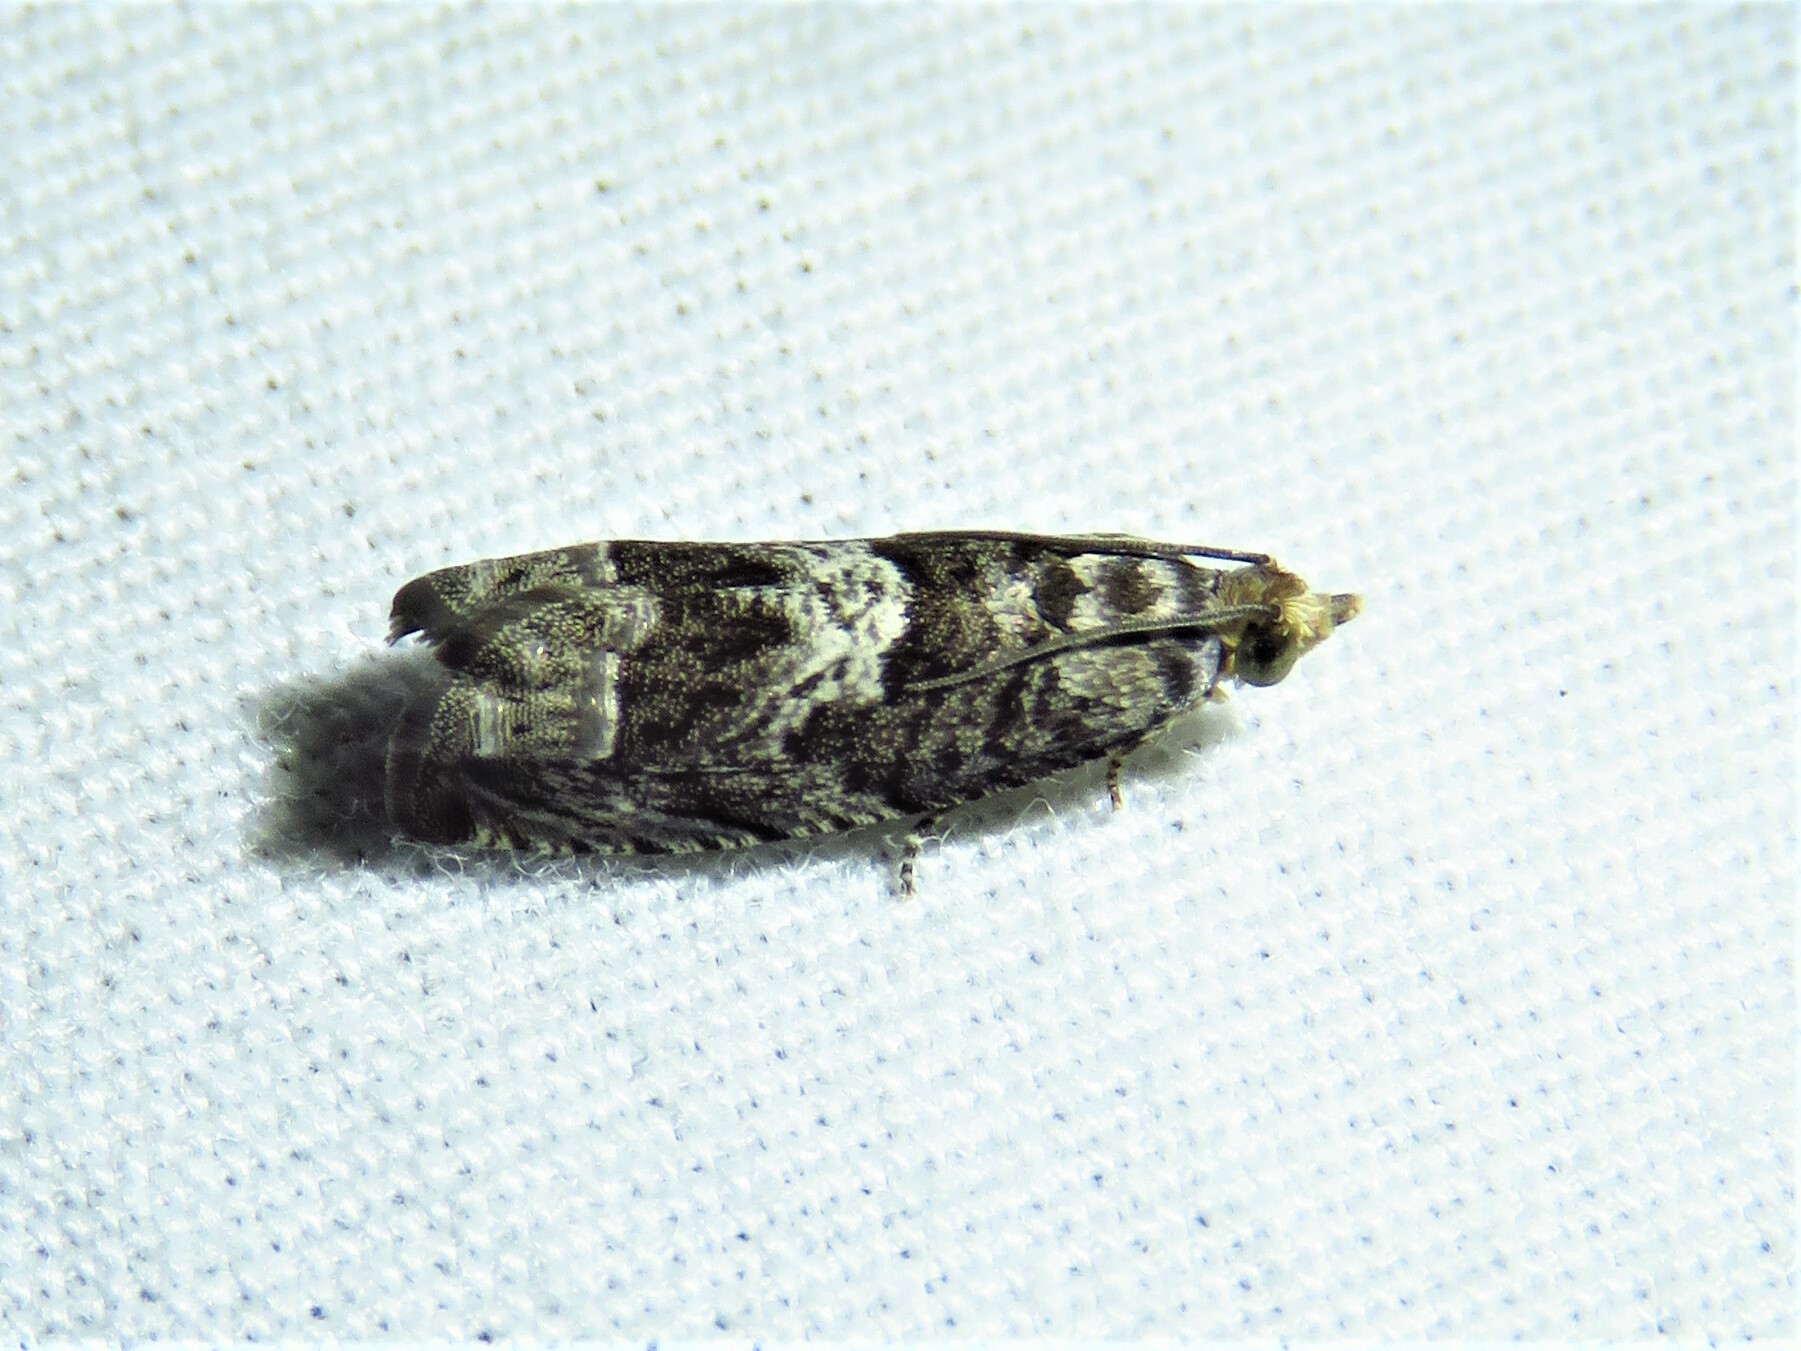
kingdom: Animalia
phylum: Arthropoda
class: Insecta
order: Lepidoptera
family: Tortricidae
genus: Cydia
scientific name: Cydia membrosa
